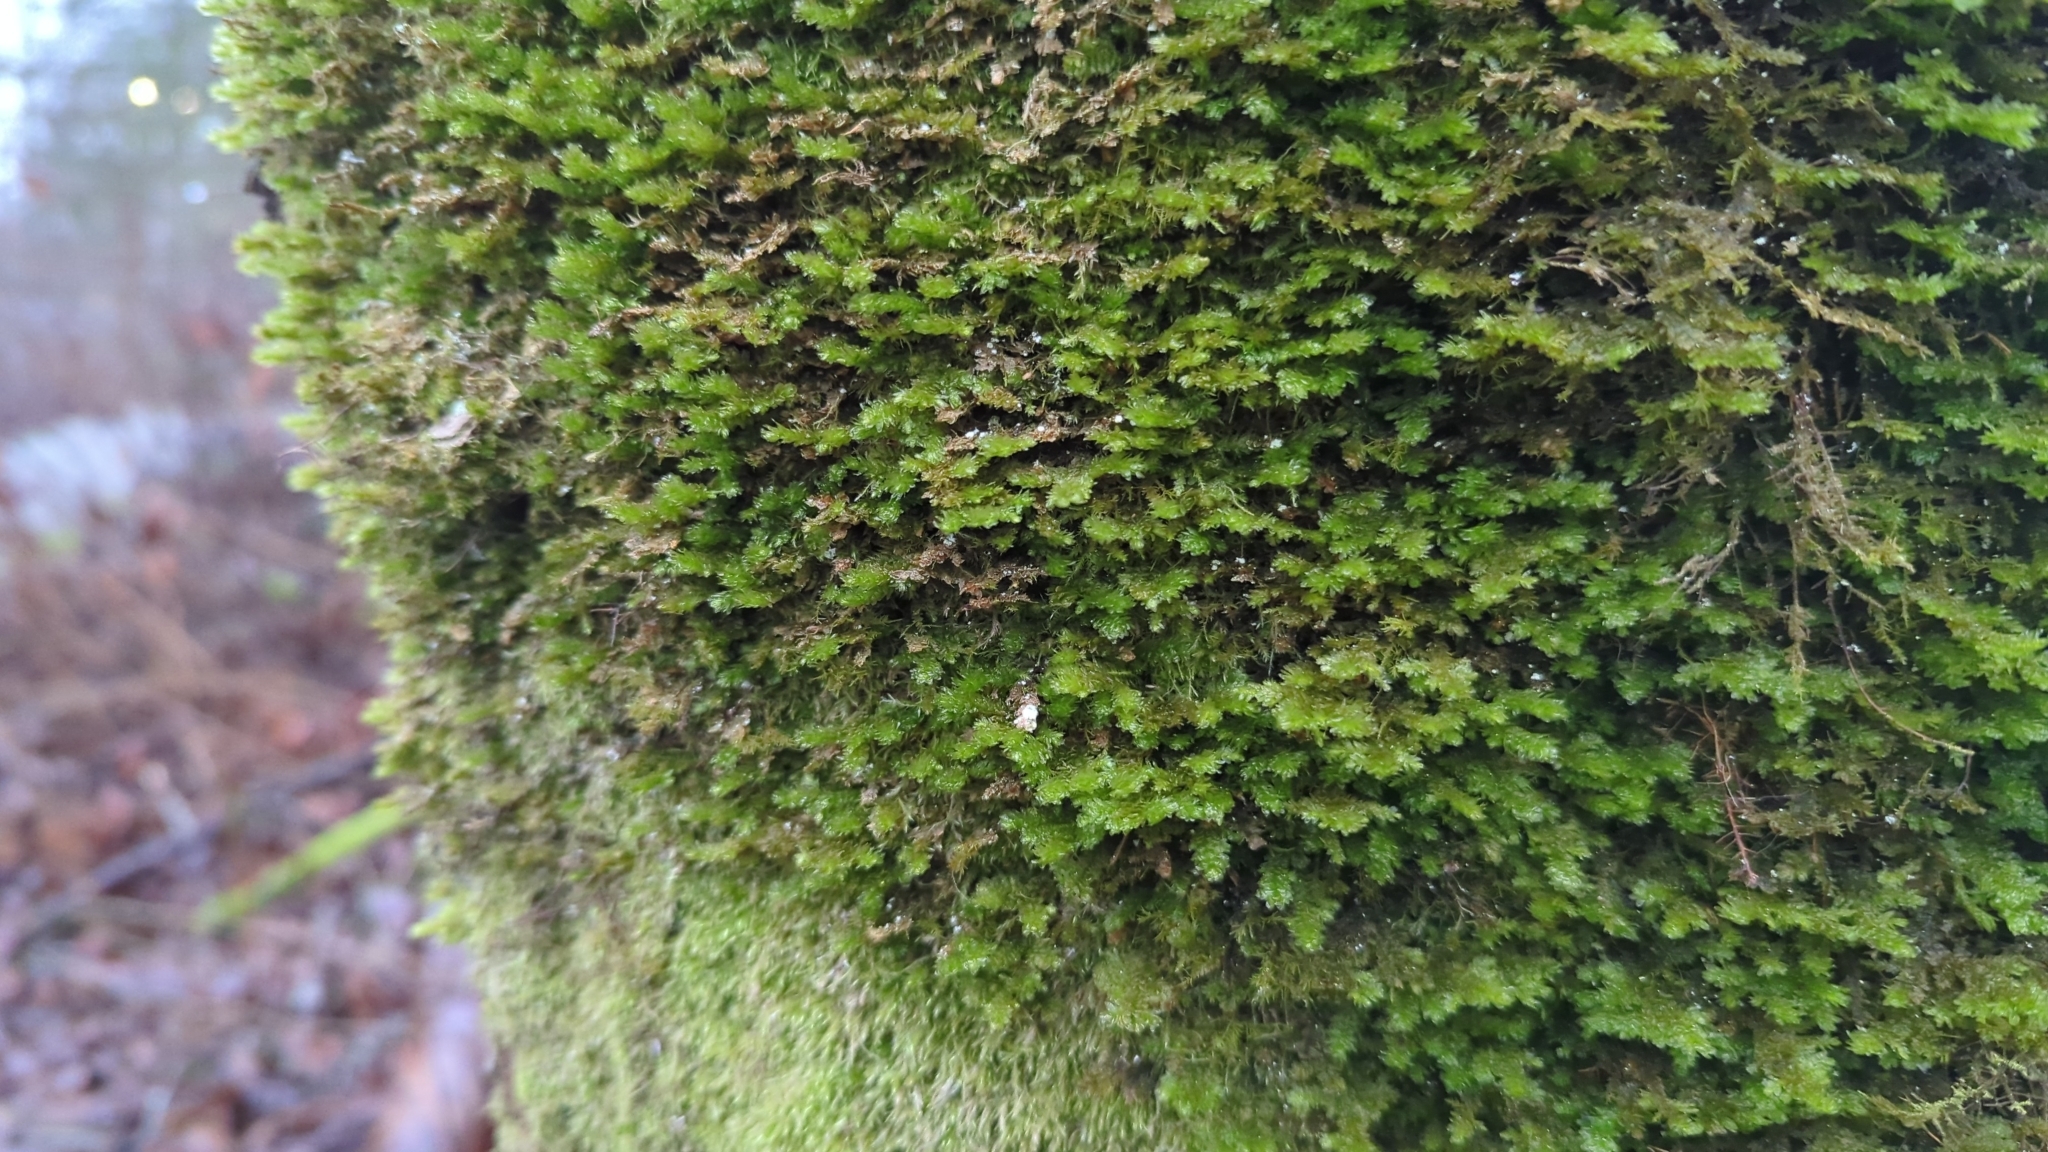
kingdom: Plantae
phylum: Bryophyta
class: Bryopsida
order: Hypnales
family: Neckeraceae
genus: Metaneckera
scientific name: Metaneckera menziesii
